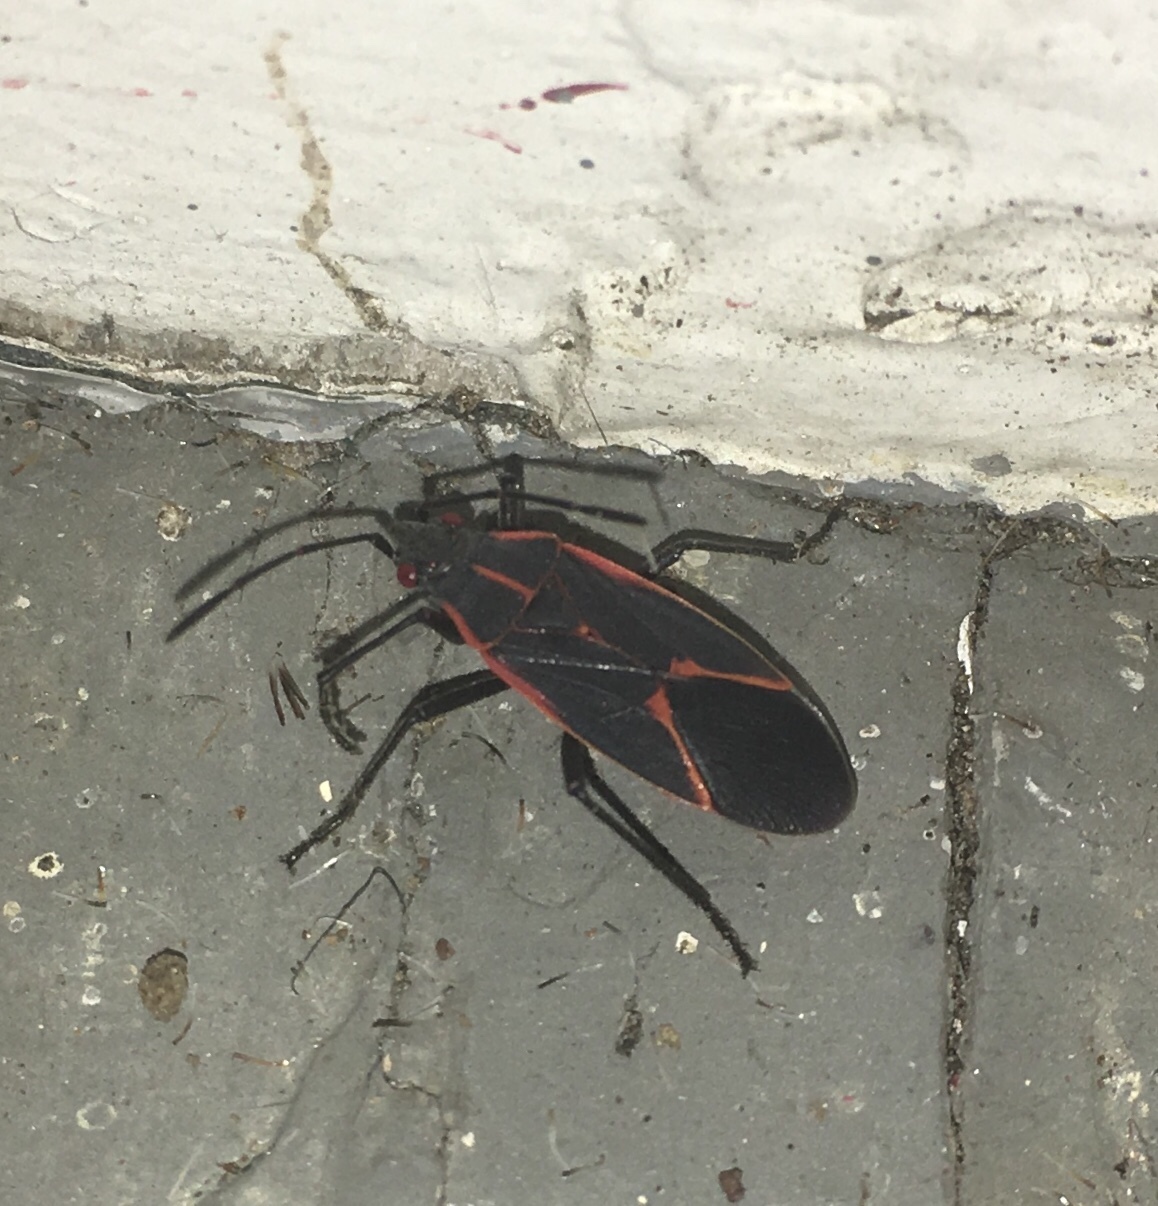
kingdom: Animalia
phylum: Arthropoda
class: Insecta
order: Hemiptera
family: Rhopalidae
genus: Boisea
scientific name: Boisea trivittata
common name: Boxelder bug
